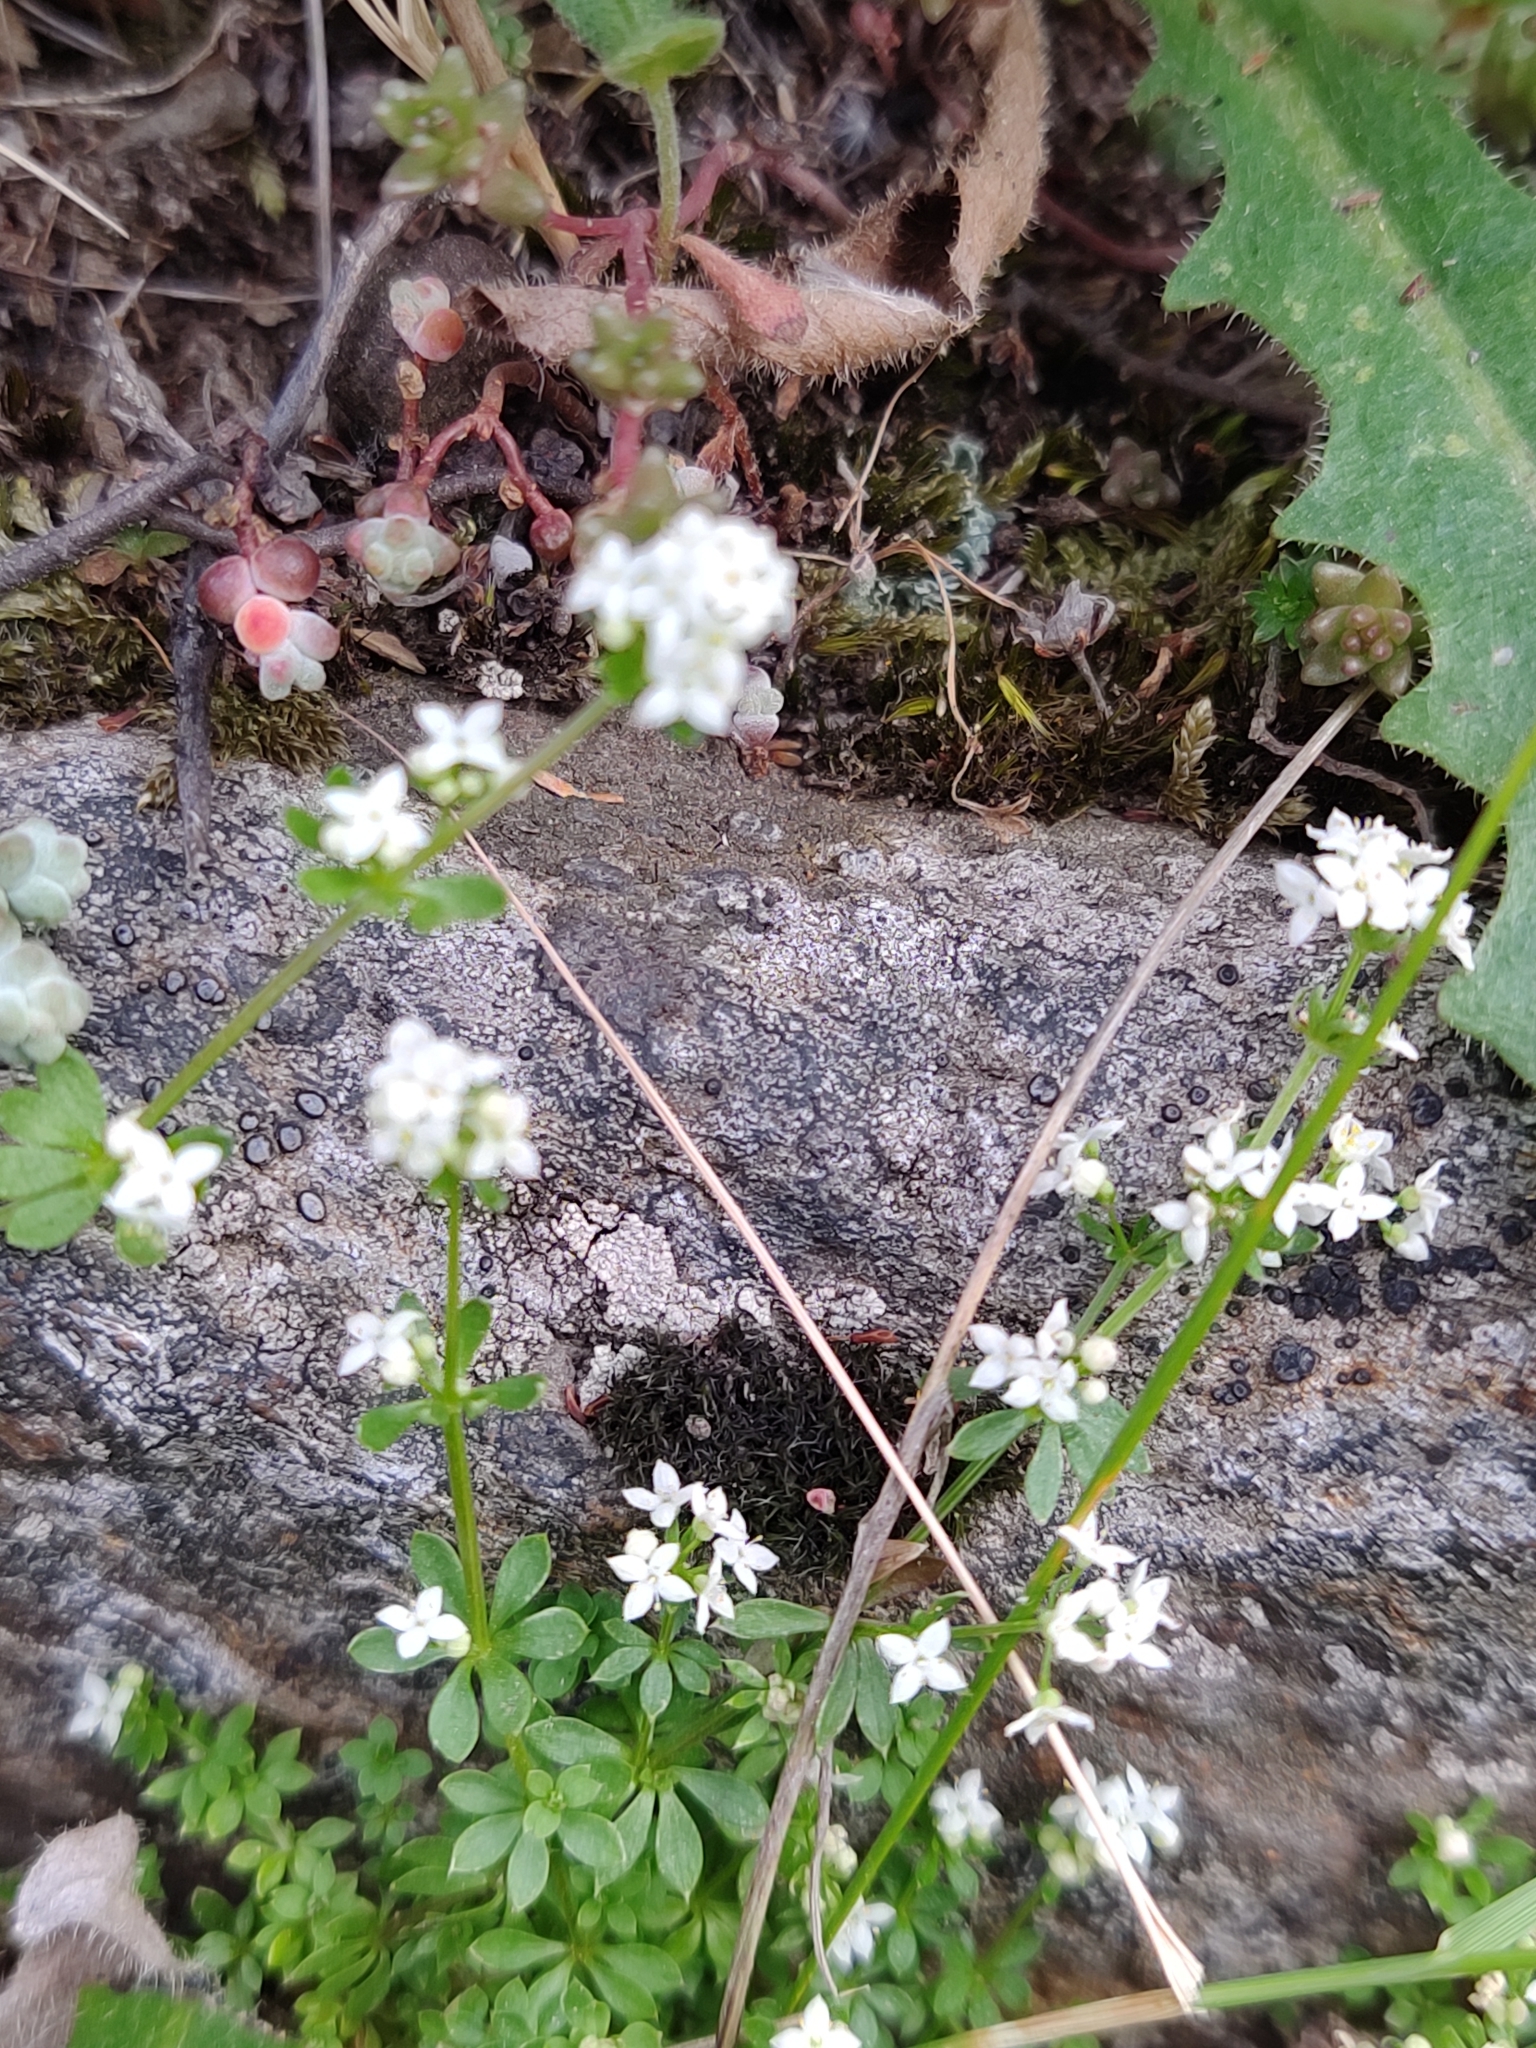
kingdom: Plantae
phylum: Tracheophyta
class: Magnoliopsida
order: Gentianales
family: Rubiaceae
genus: Galium
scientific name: Galium saxatile
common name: Heath bedstraw
